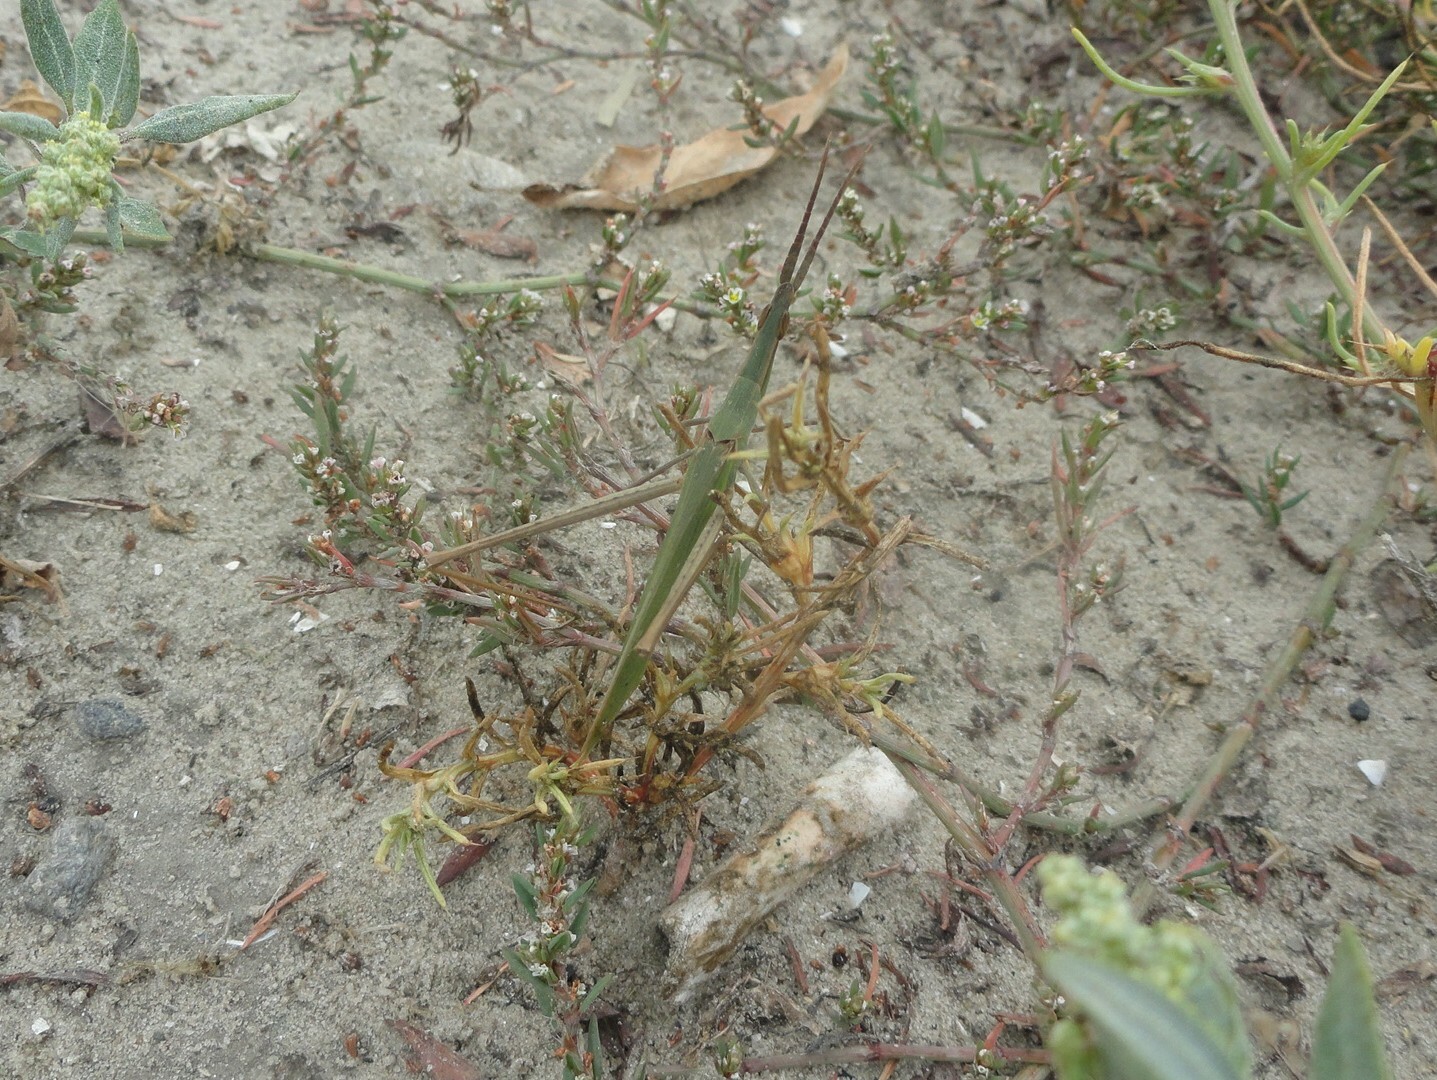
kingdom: Animalia
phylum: Arthropoda
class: Insecta
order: Orthoptera
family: Acrididae
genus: Acrida
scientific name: Acrida ungarica
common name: Common cone-headed grasshopper
